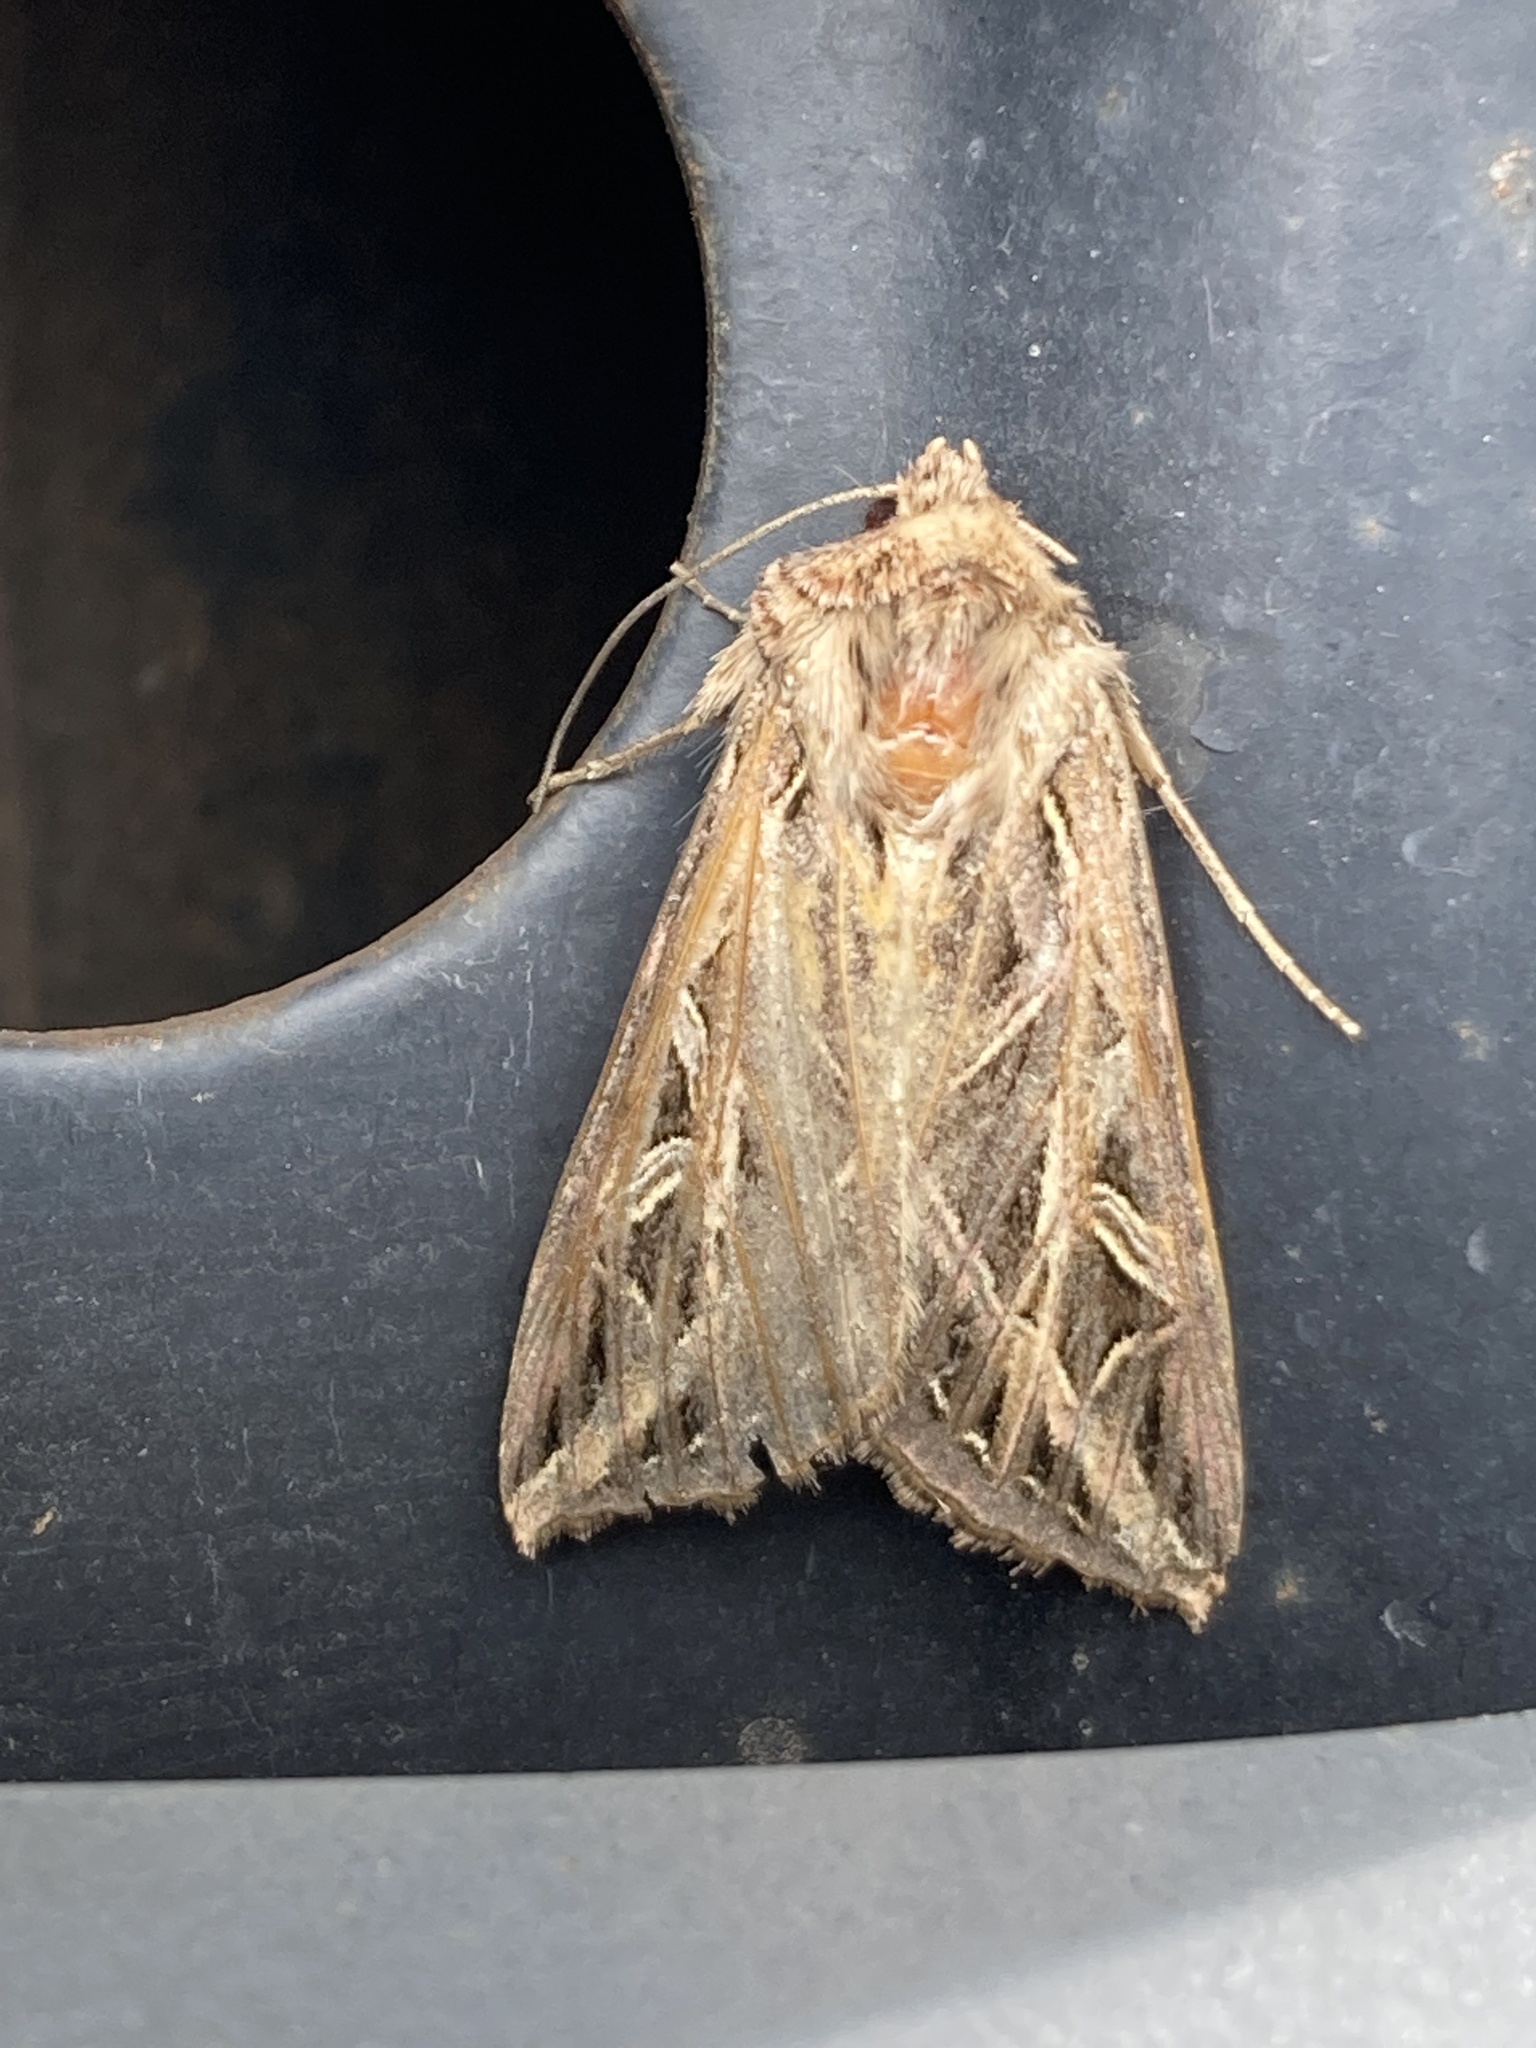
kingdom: Animalia
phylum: Arthropoda
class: Insecta
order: Lepidoptera
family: Noctuidae
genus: Dargida
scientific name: Dargida procinctus
